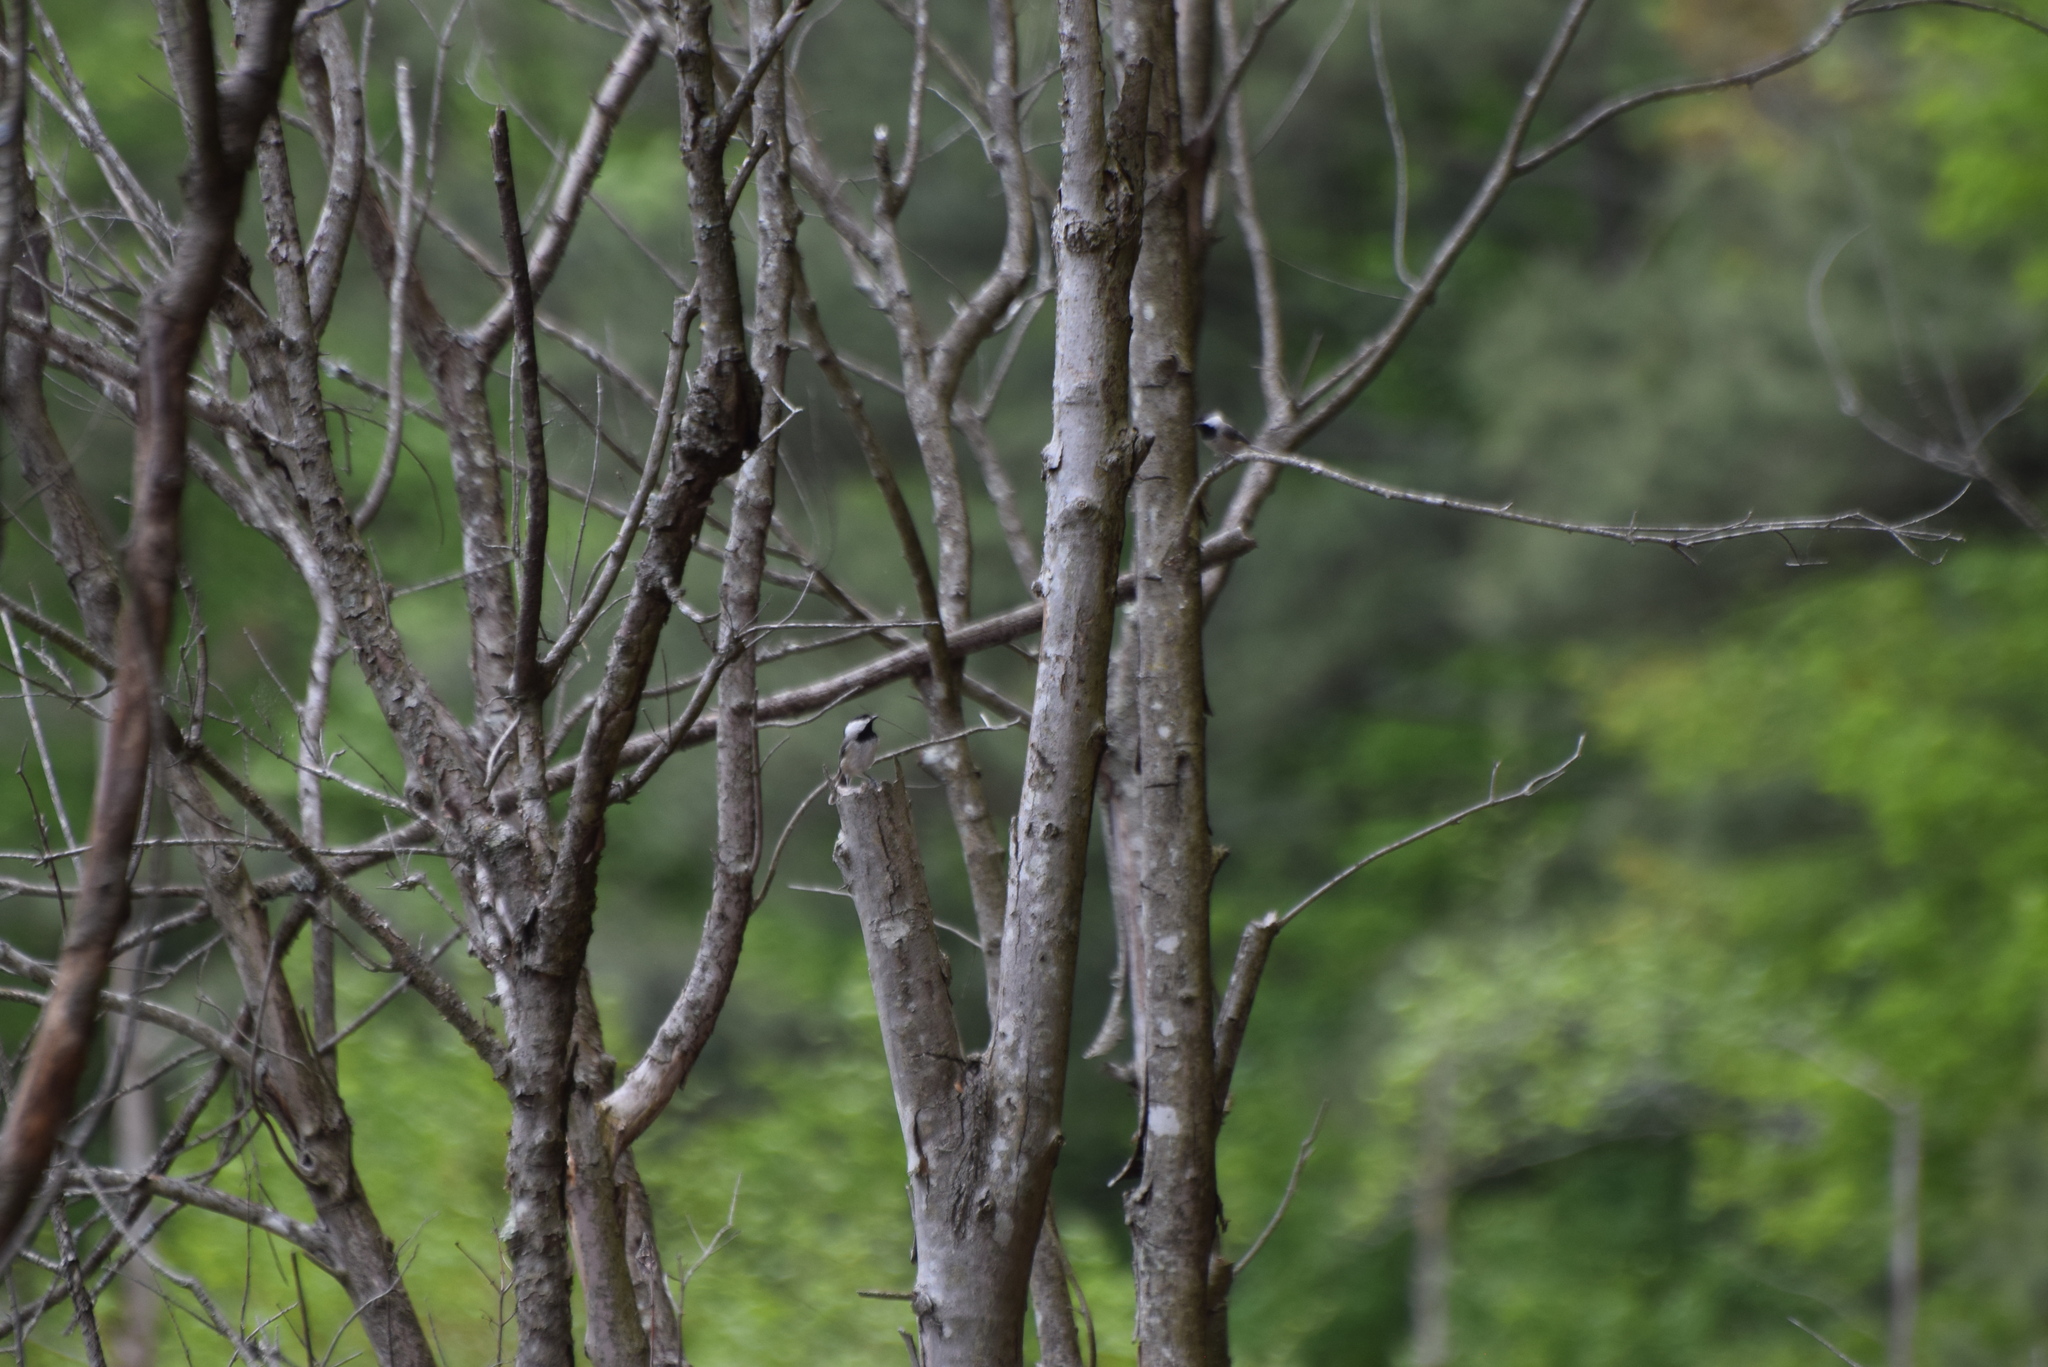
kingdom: Animalia
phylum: Chordata
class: Aves
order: Passeriformes
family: Paridae
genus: Poecile
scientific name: Poecile carolinensis
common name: Carolina chickadee
